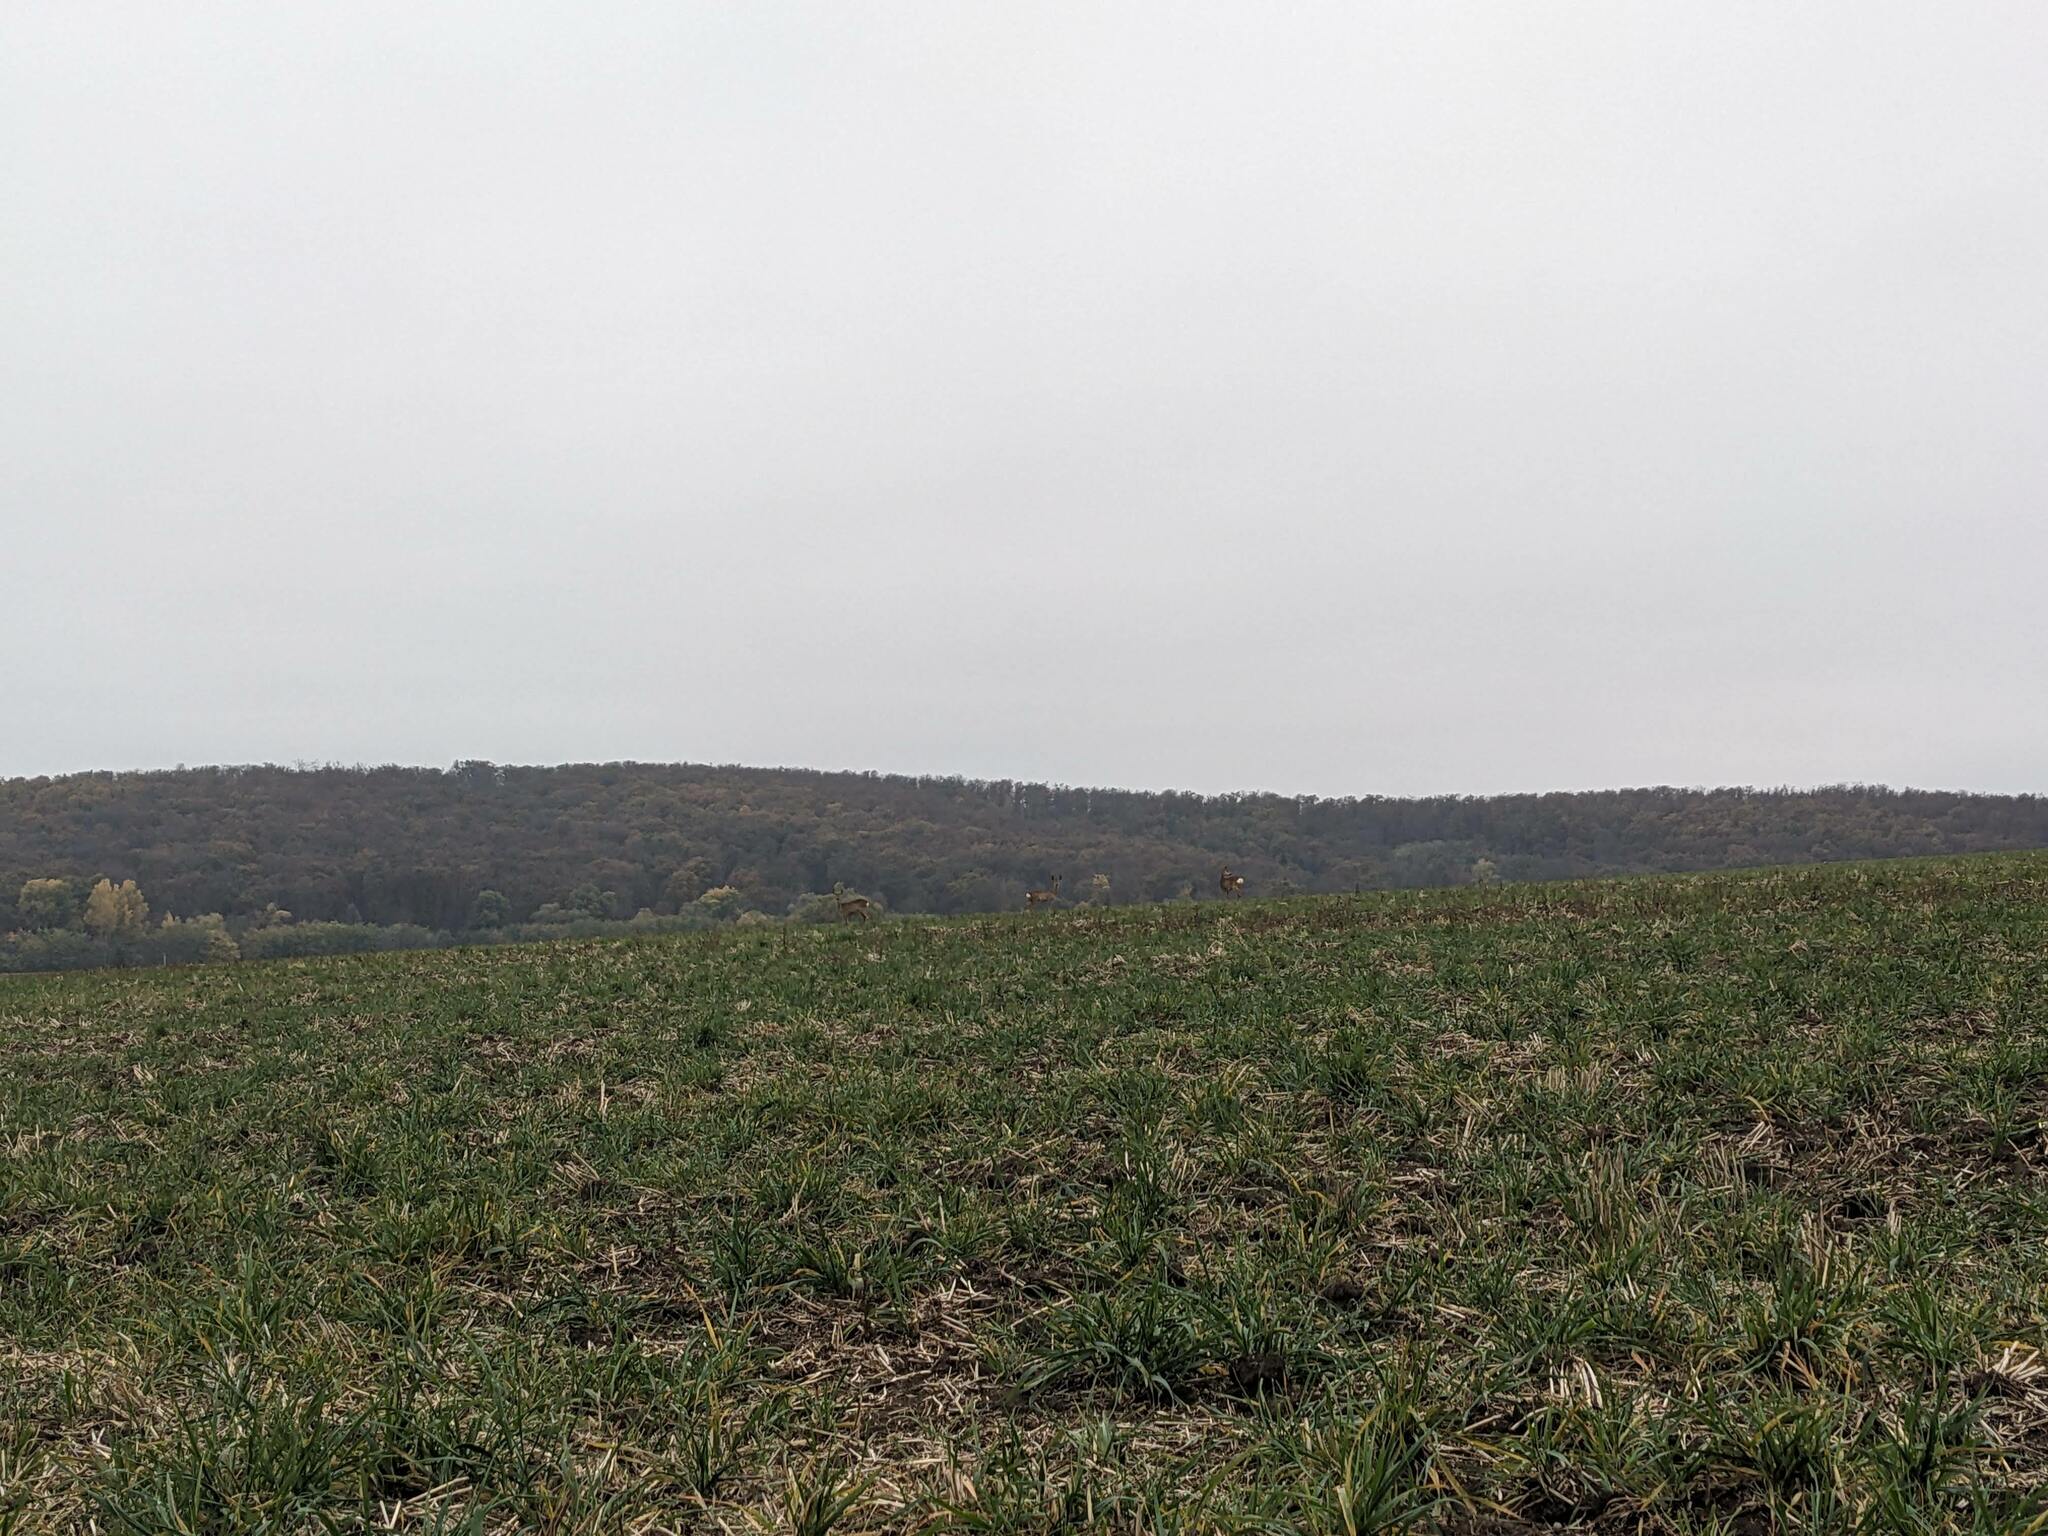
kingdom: Animalia
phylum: Chordata
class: Mammalia
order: Artiodactyla
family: Cervidae
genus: Capreolus
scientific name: Capreolus capreolus
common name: Western roe deer
